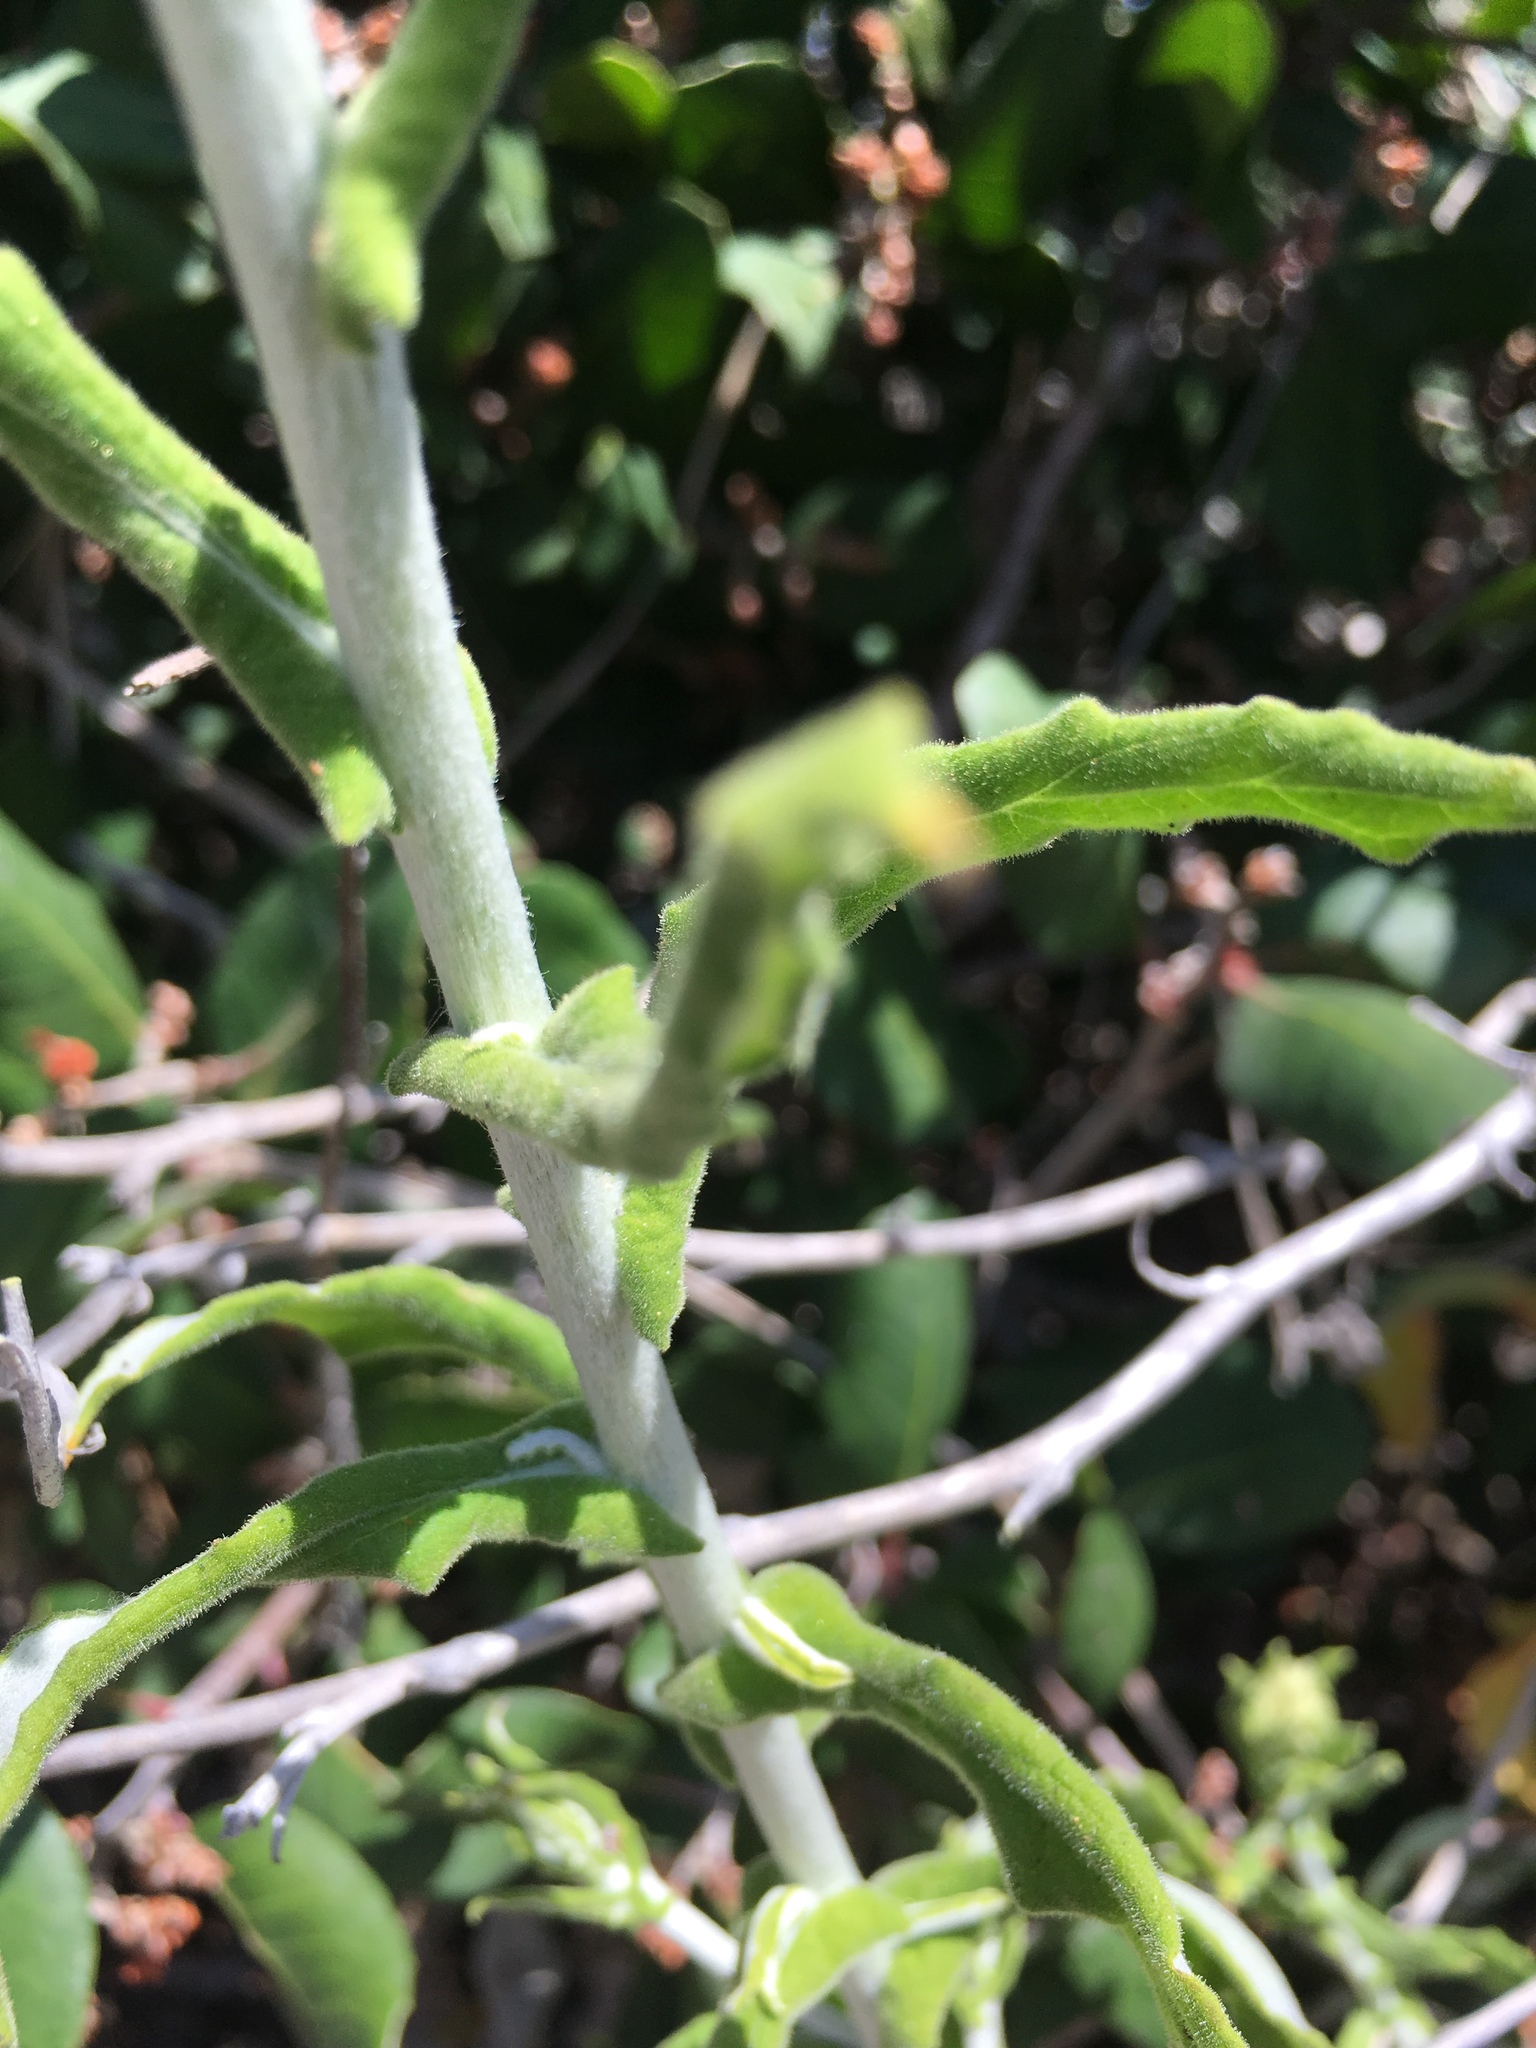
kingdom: Plantae
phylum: Tracheophyta
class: Magnoliopsida
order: Asterales
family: Asteraceae
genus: Pseudognaphalium
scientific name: Pseudognaphalium biolettii
